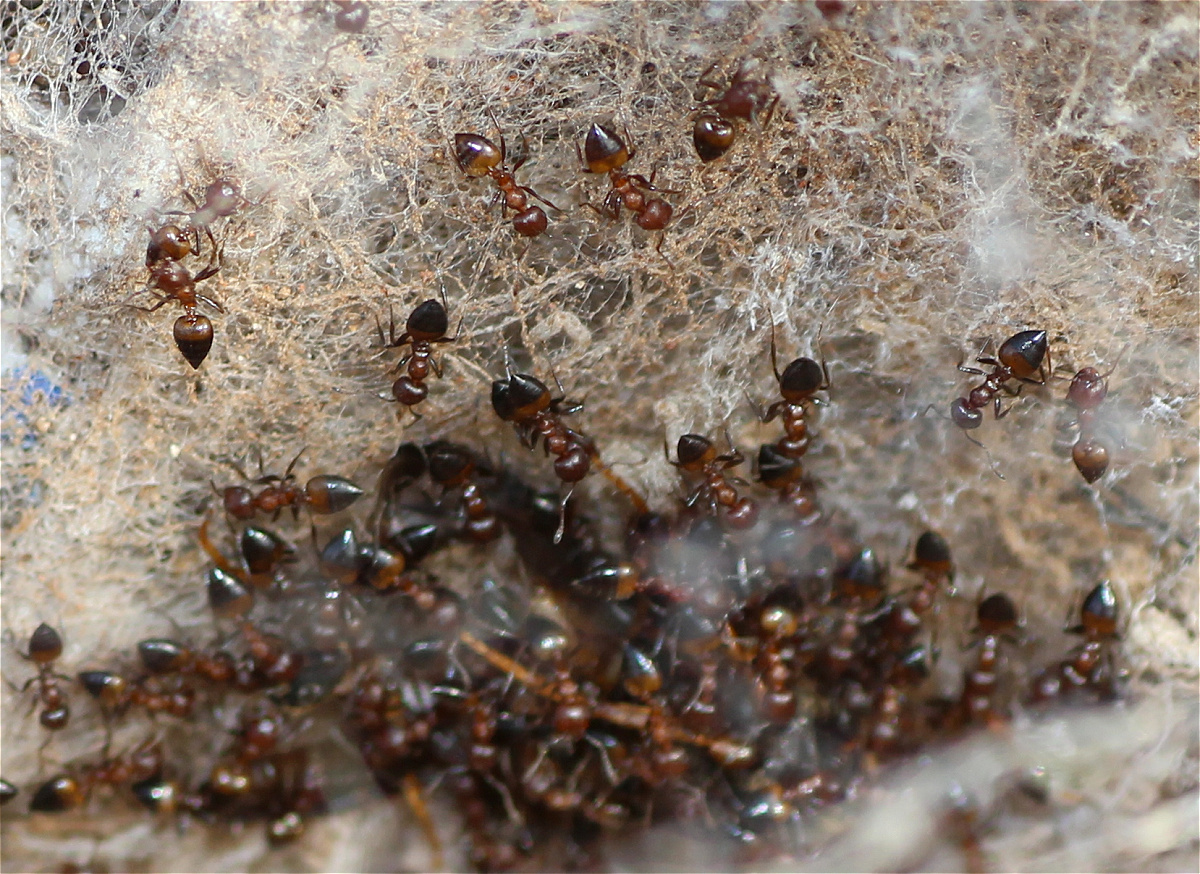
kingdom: Animalia
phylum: Arthropoda
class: Insecta
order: Hymenoptera
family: Formicidae
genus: Crematogaster
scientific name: Crematogaster castanea
